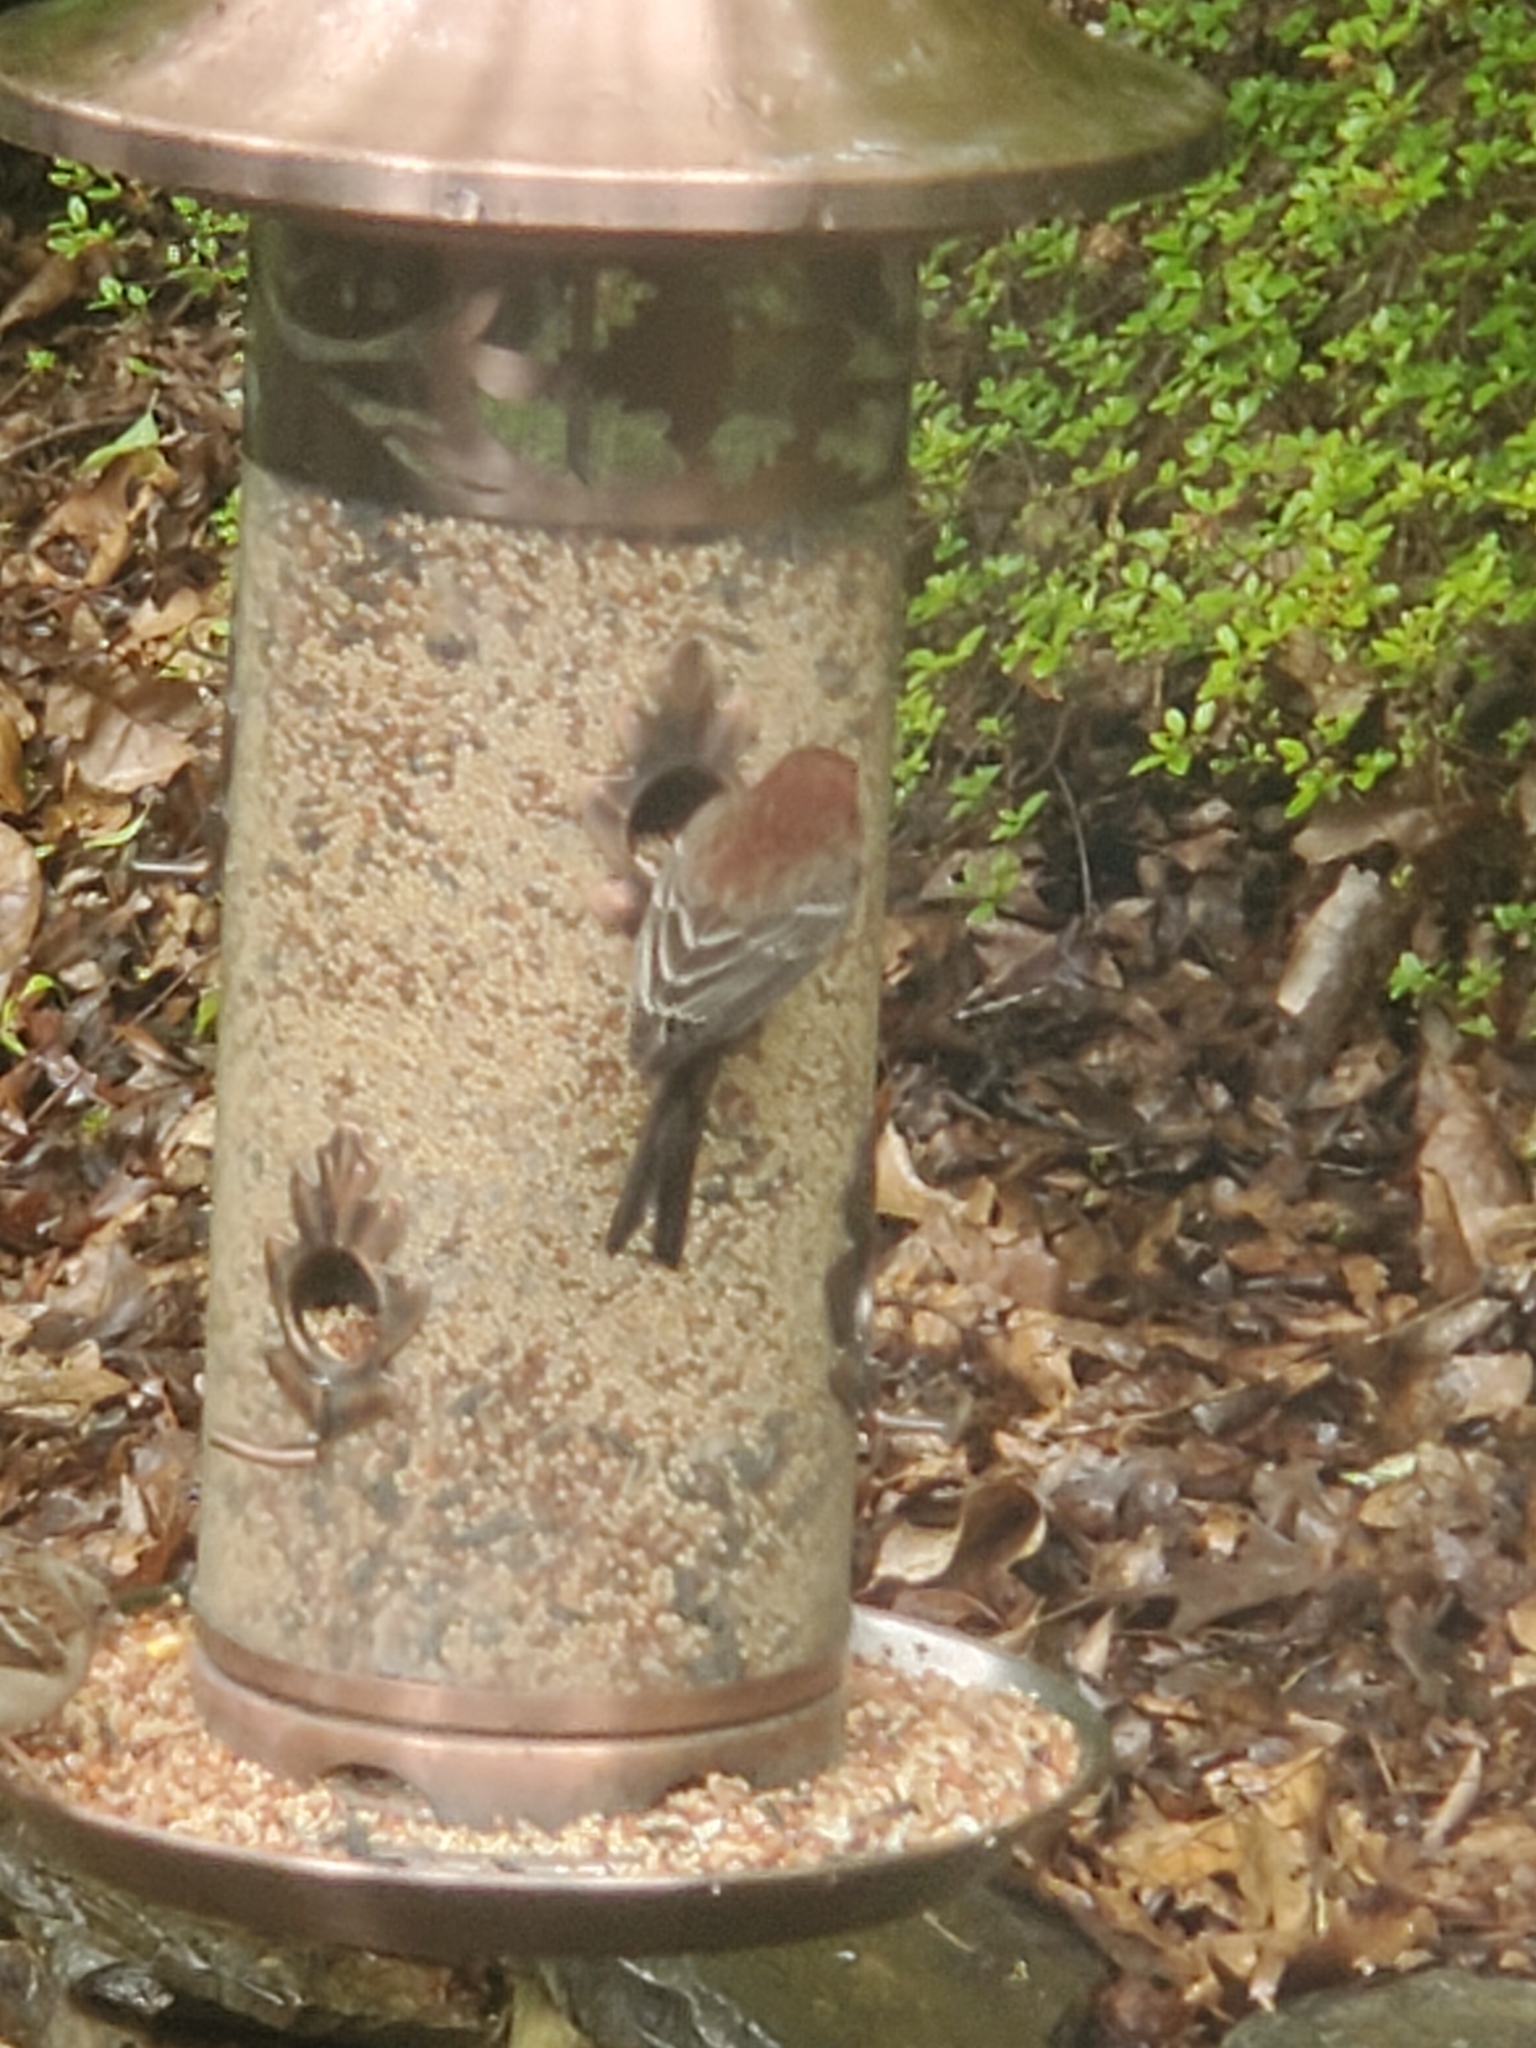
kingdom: Animalia
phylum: Chordata
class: Aves
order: Passeriformes
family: Fringillidae
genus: Haemorhous
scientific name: Haemorhous mexicanus
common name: House finch
